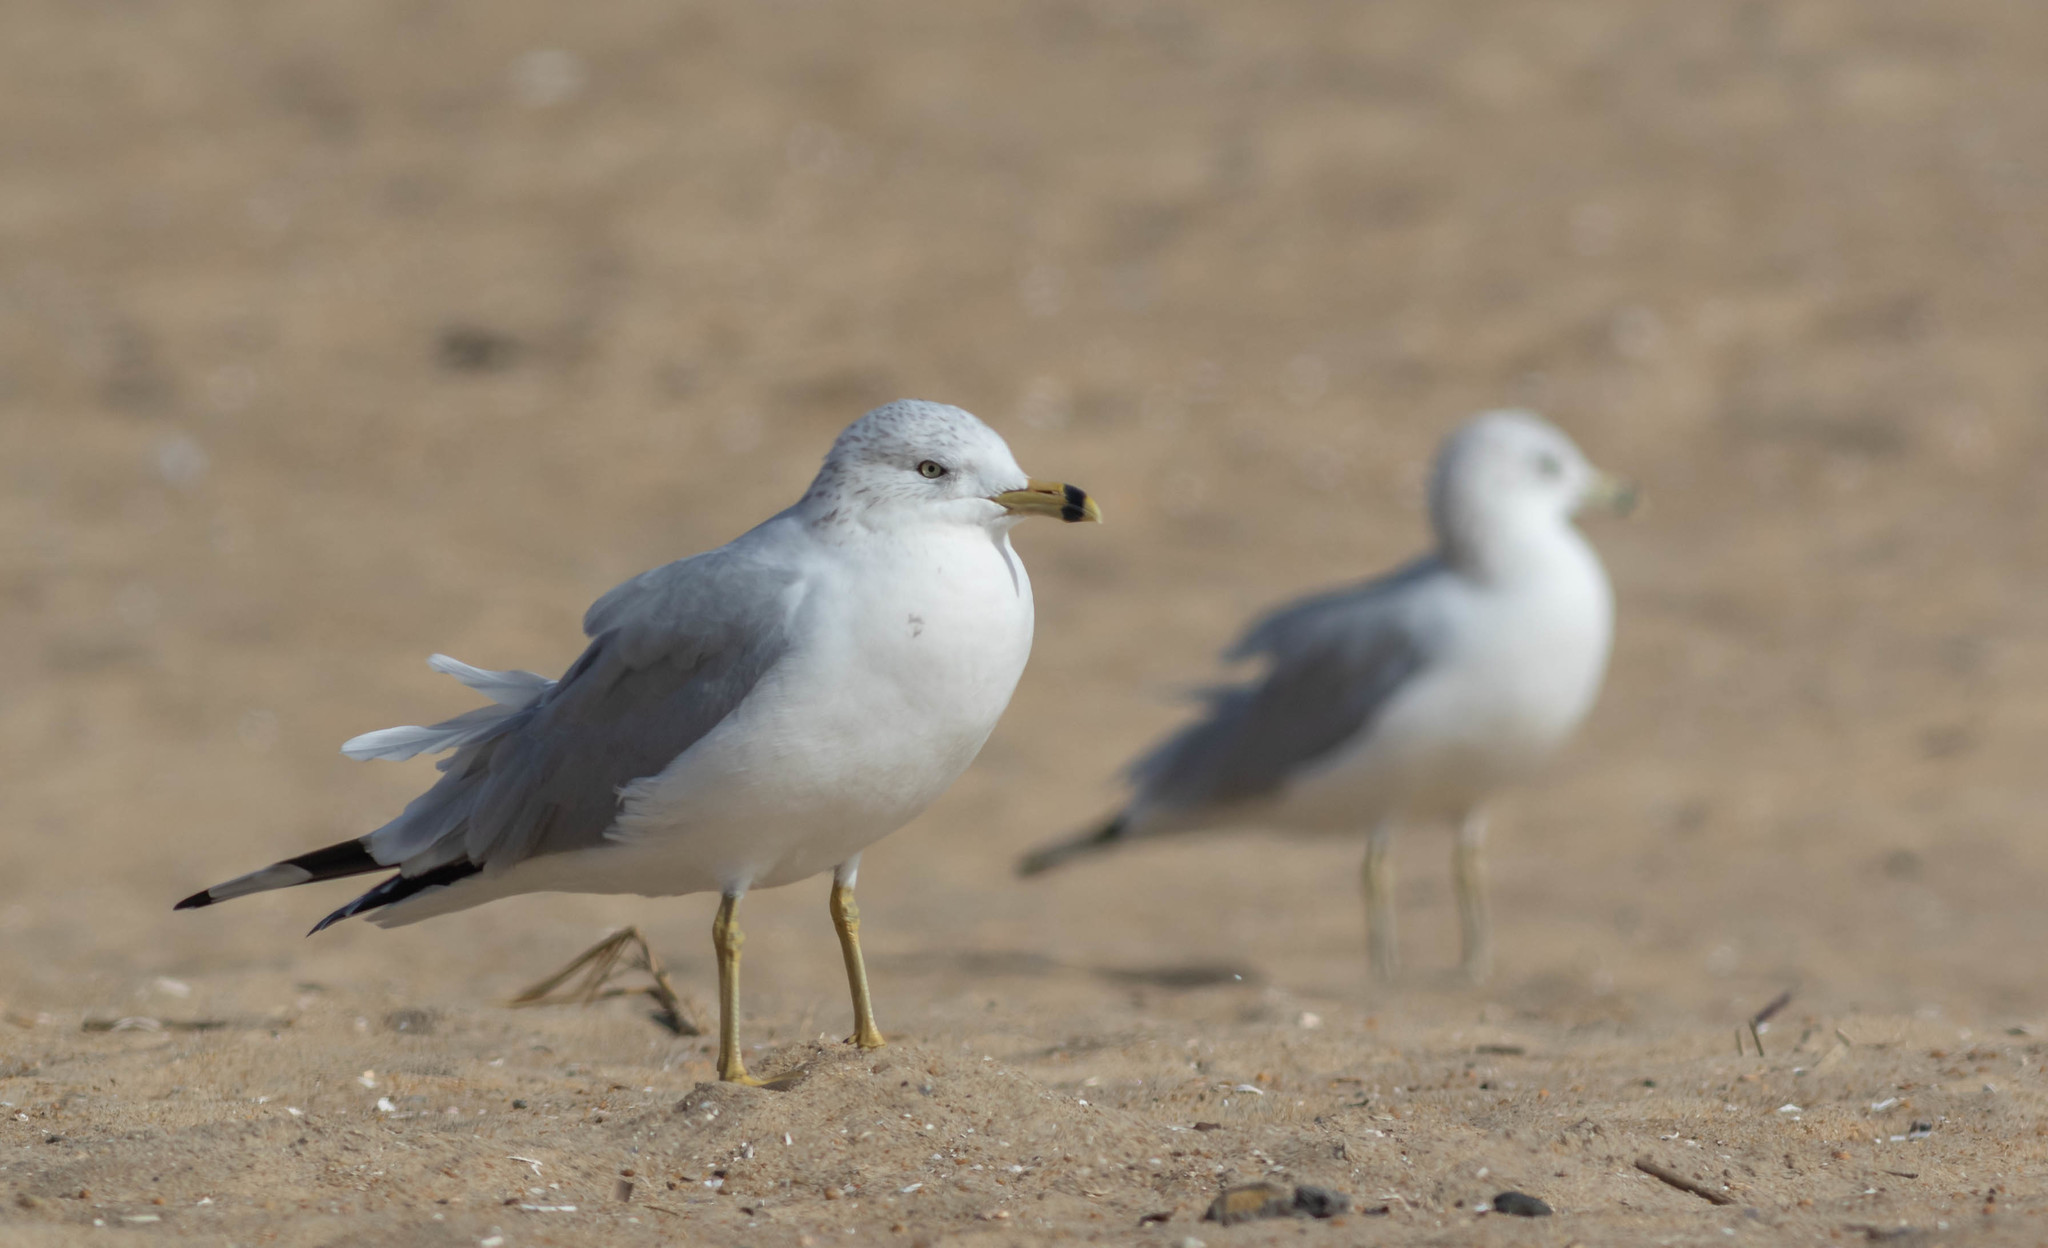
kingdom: Animalia
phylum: Chordata
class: Aves
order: Charadriiformes
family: Laridae
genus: Larus
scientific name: Larus delawarensis
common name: Ring-billed gull
